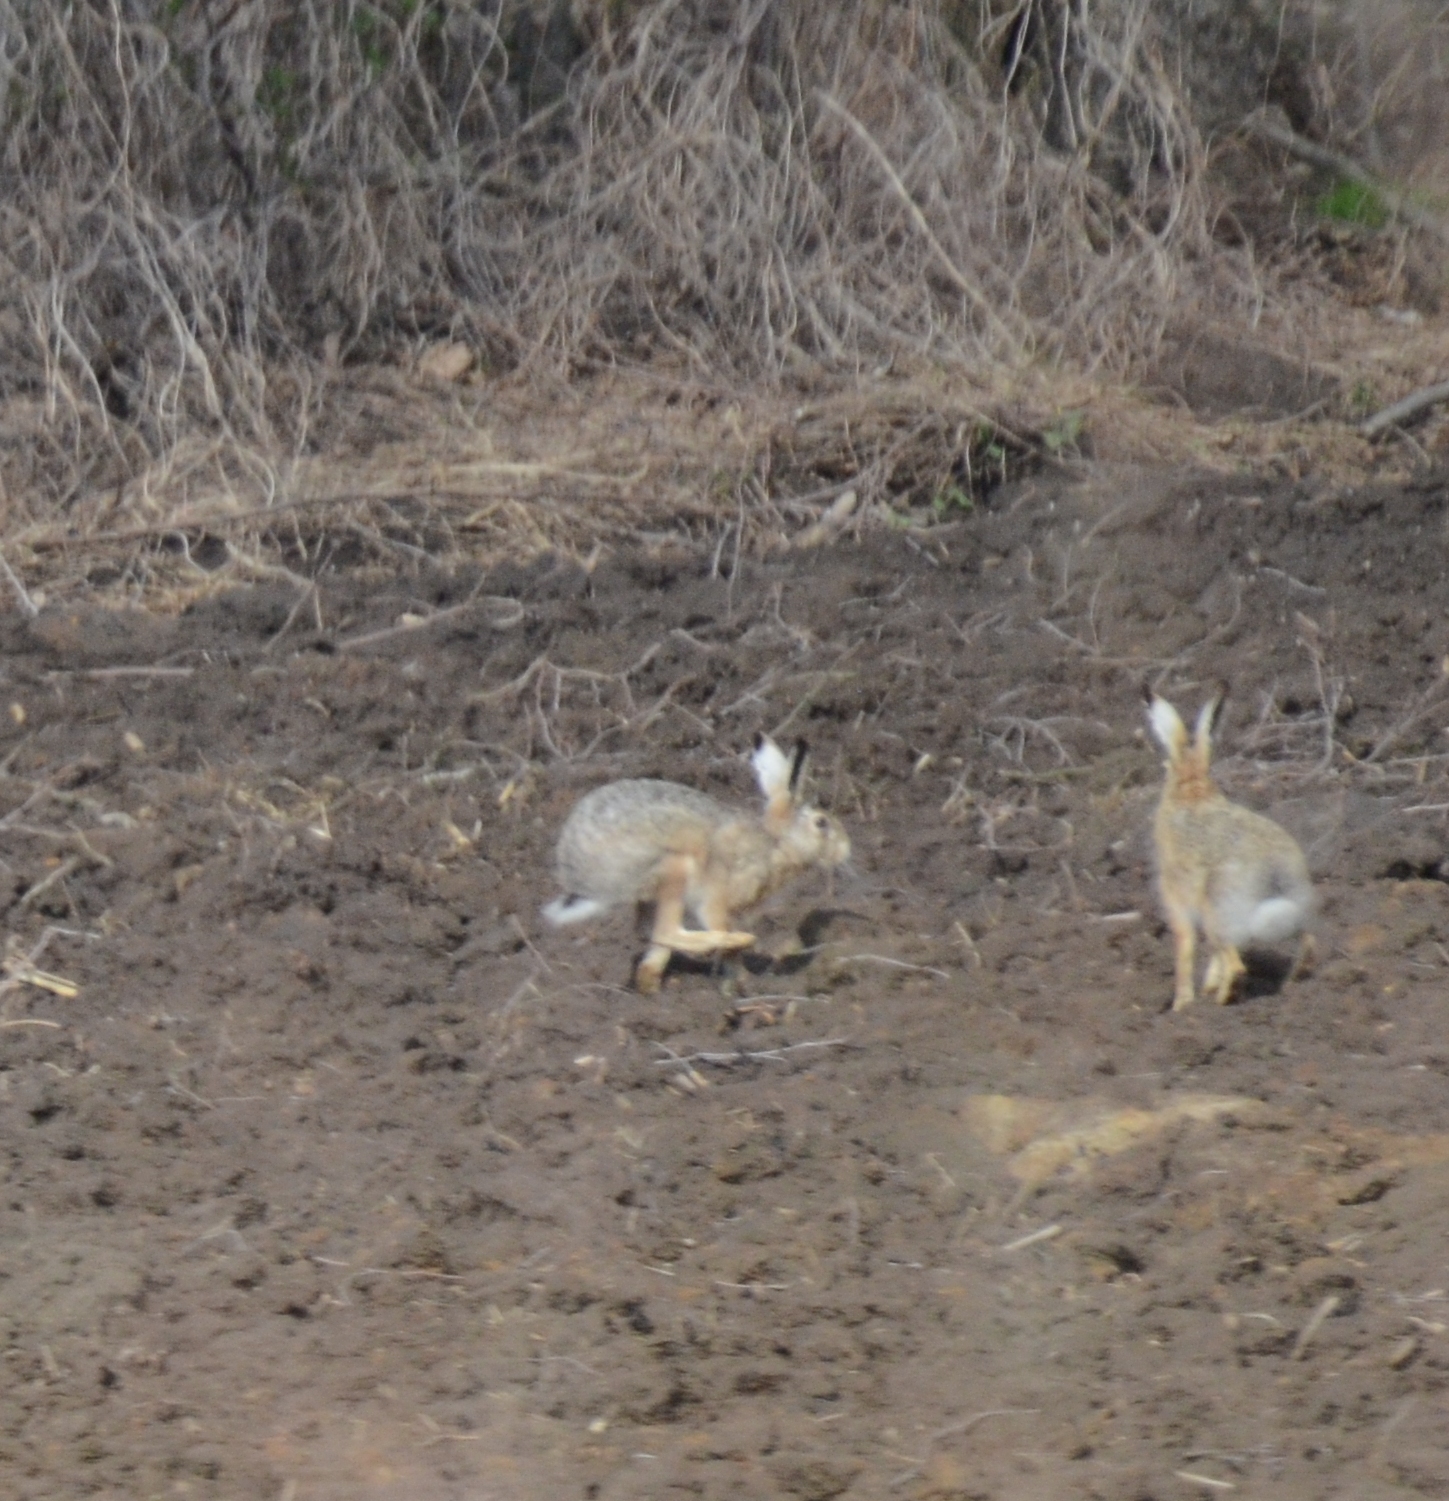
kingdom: Animalia
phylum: Chordata
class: Mammalia
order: Lagomorpha
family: Leporidae
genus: Lepus
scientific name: Lepus europaeus
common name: European hare
